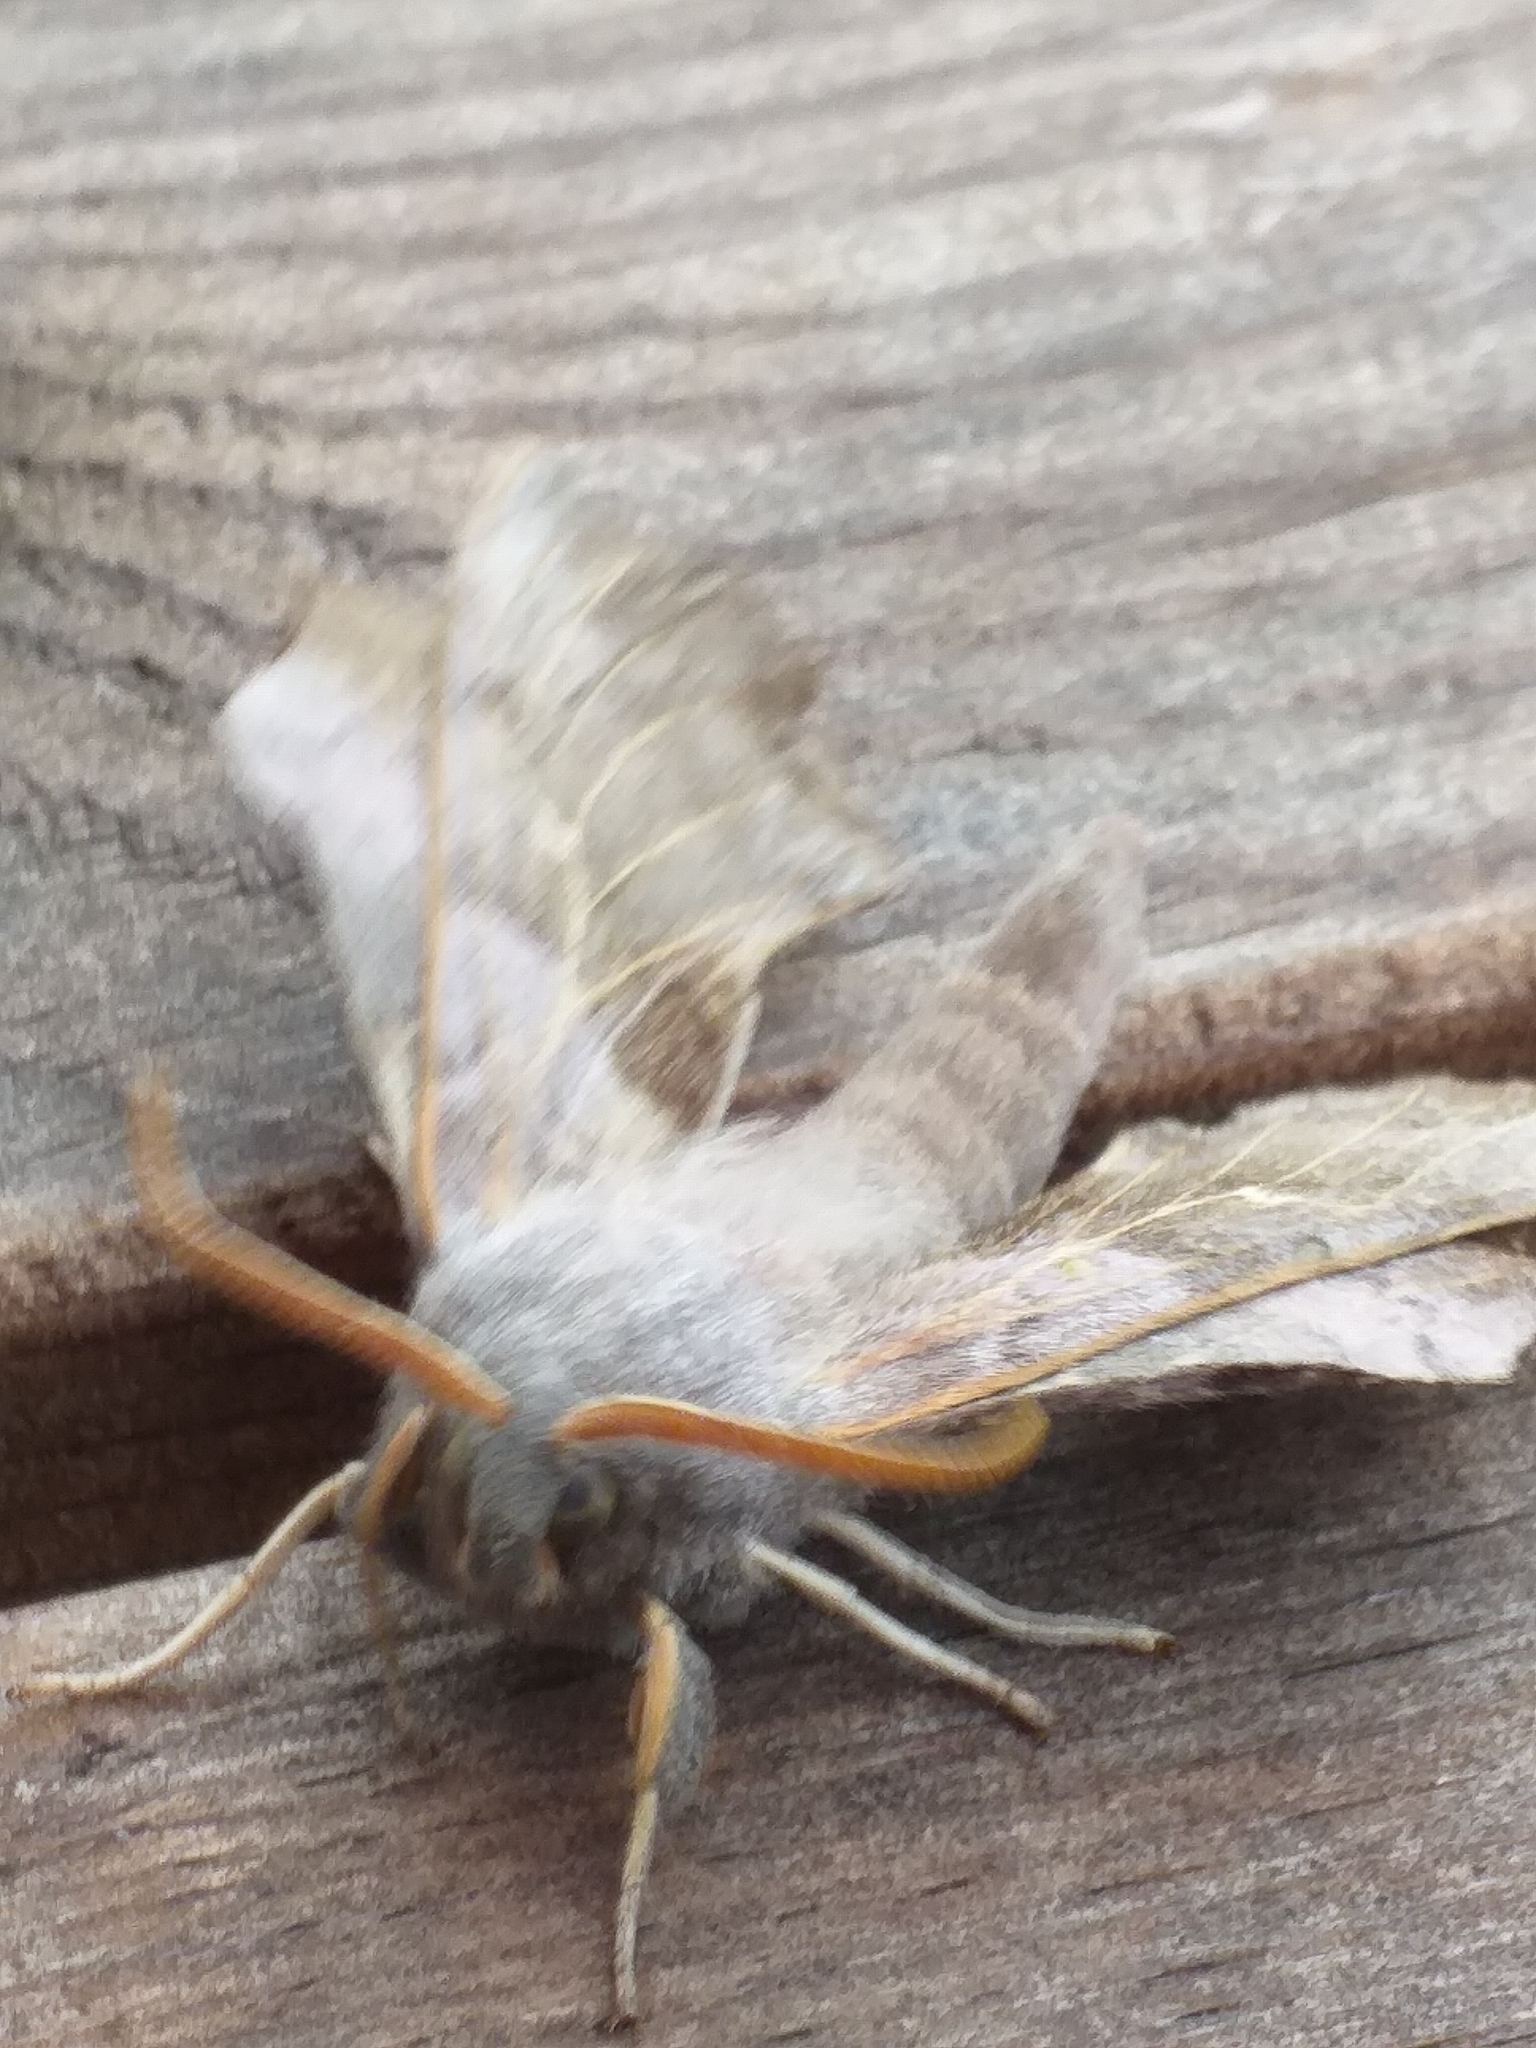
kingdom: Animalia
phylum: Arthropoda
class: Insecta
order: Lepidoptera
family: Sphingidae
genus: Laothoe
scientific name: Laothoe populi
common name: Poplar hawk-moth
